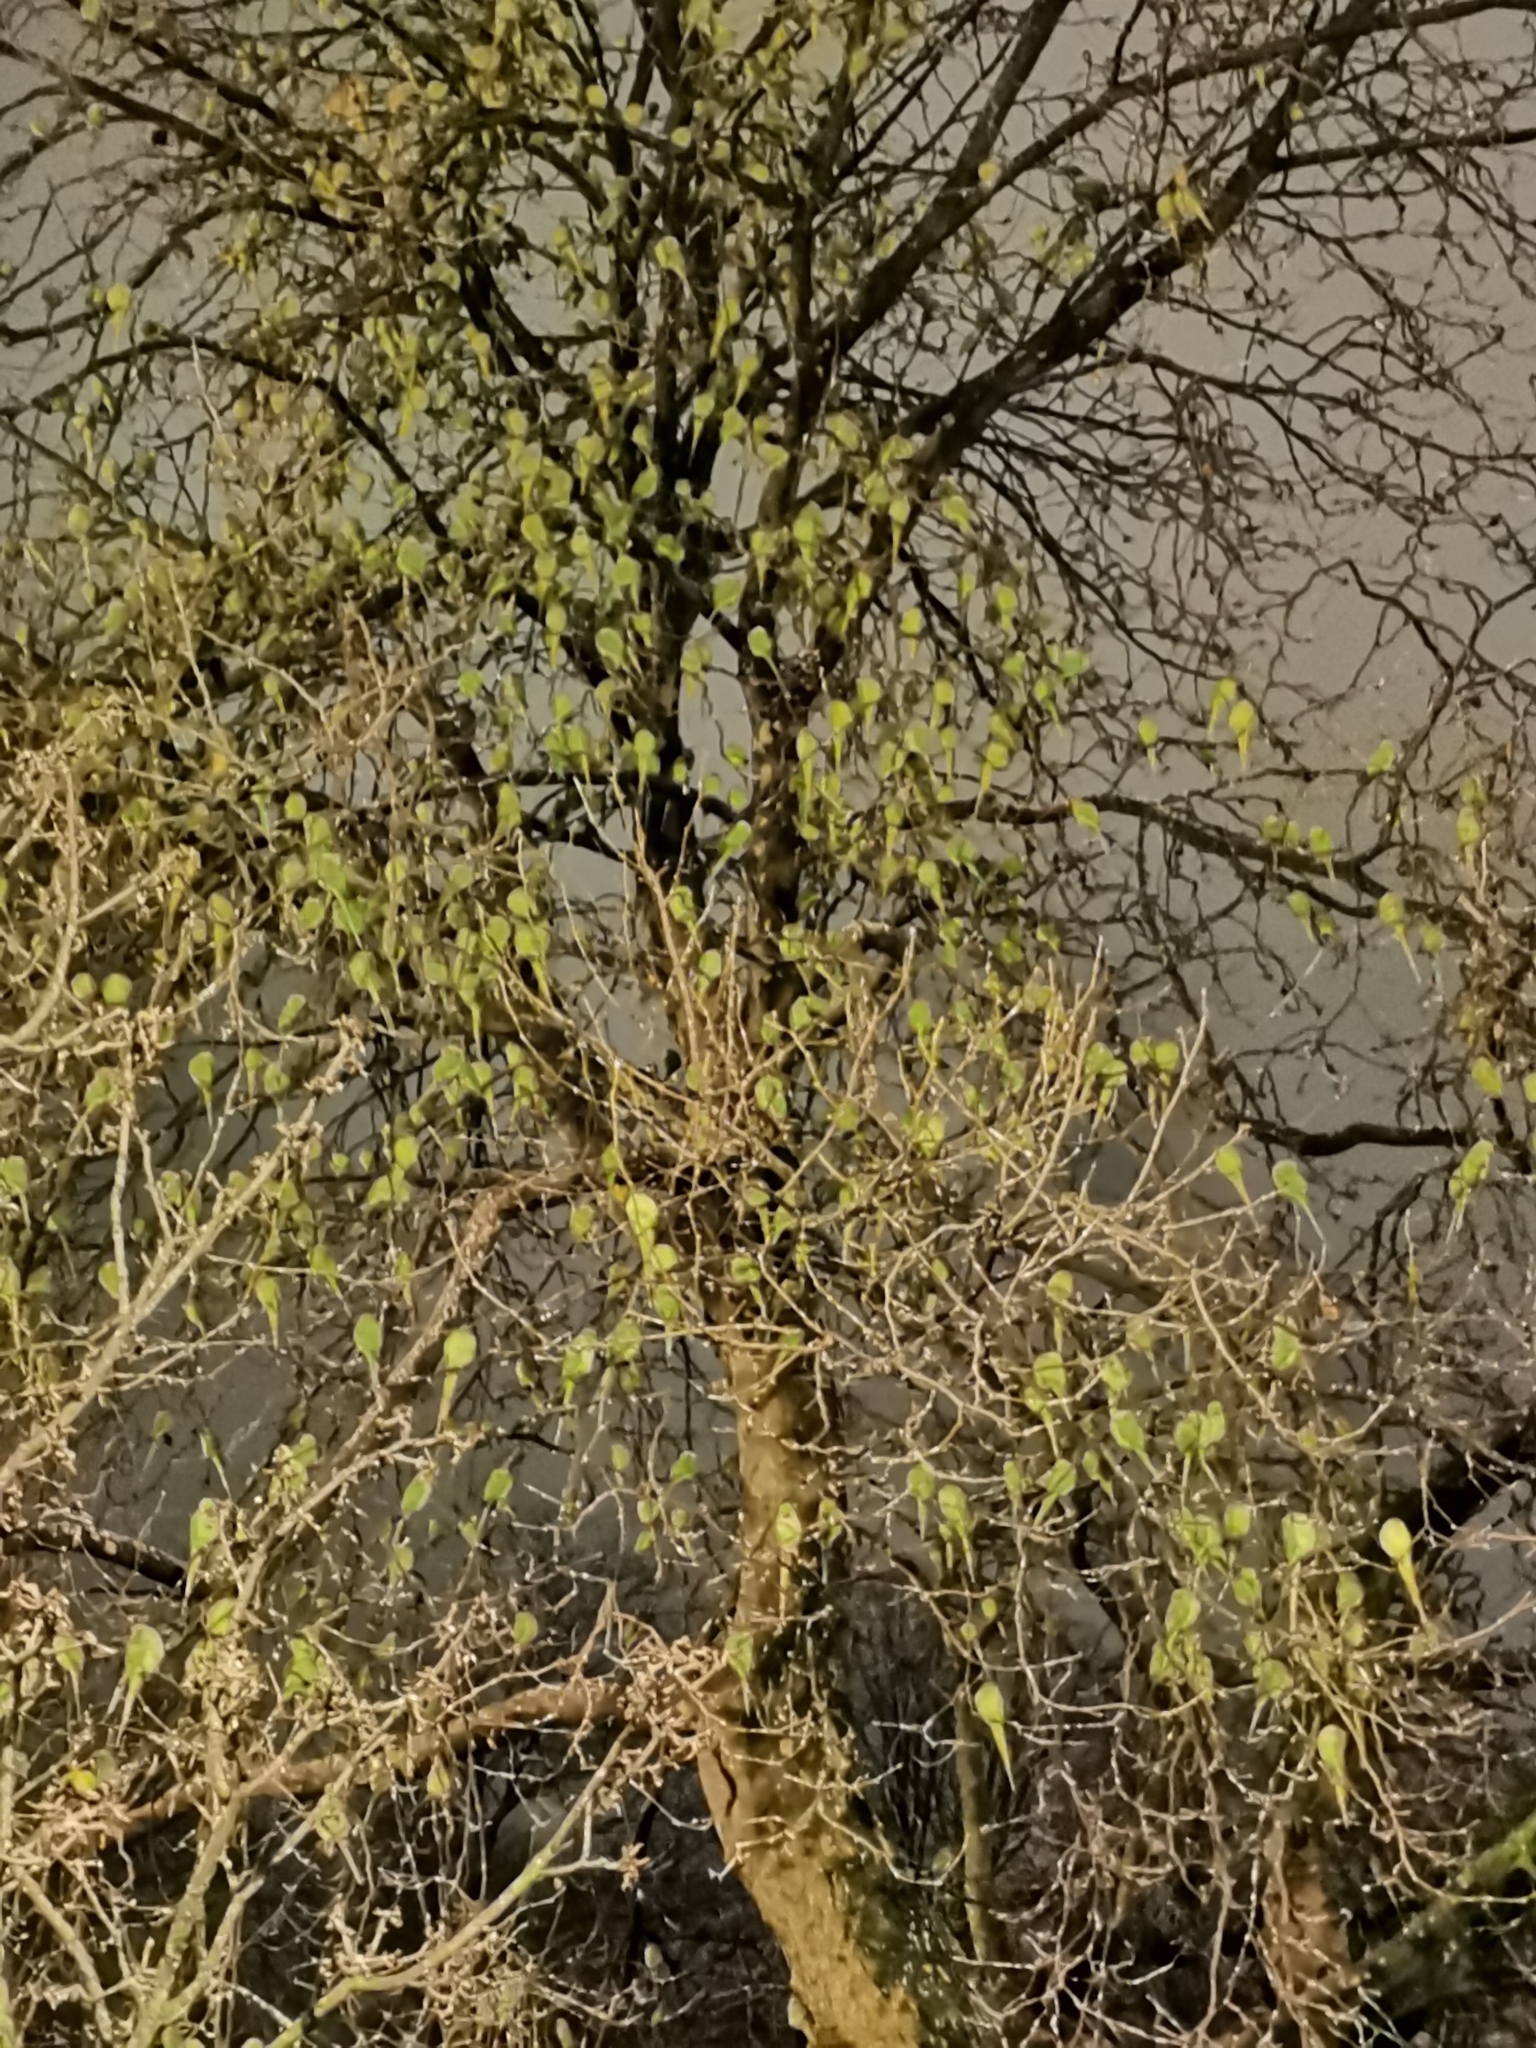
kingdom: Animalia
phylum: Chordata
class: Aves
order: Psittaciformes
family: Psittacidae
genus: Psittacula
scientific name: Psittacula krameri
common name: Rose-ringed parakeet
